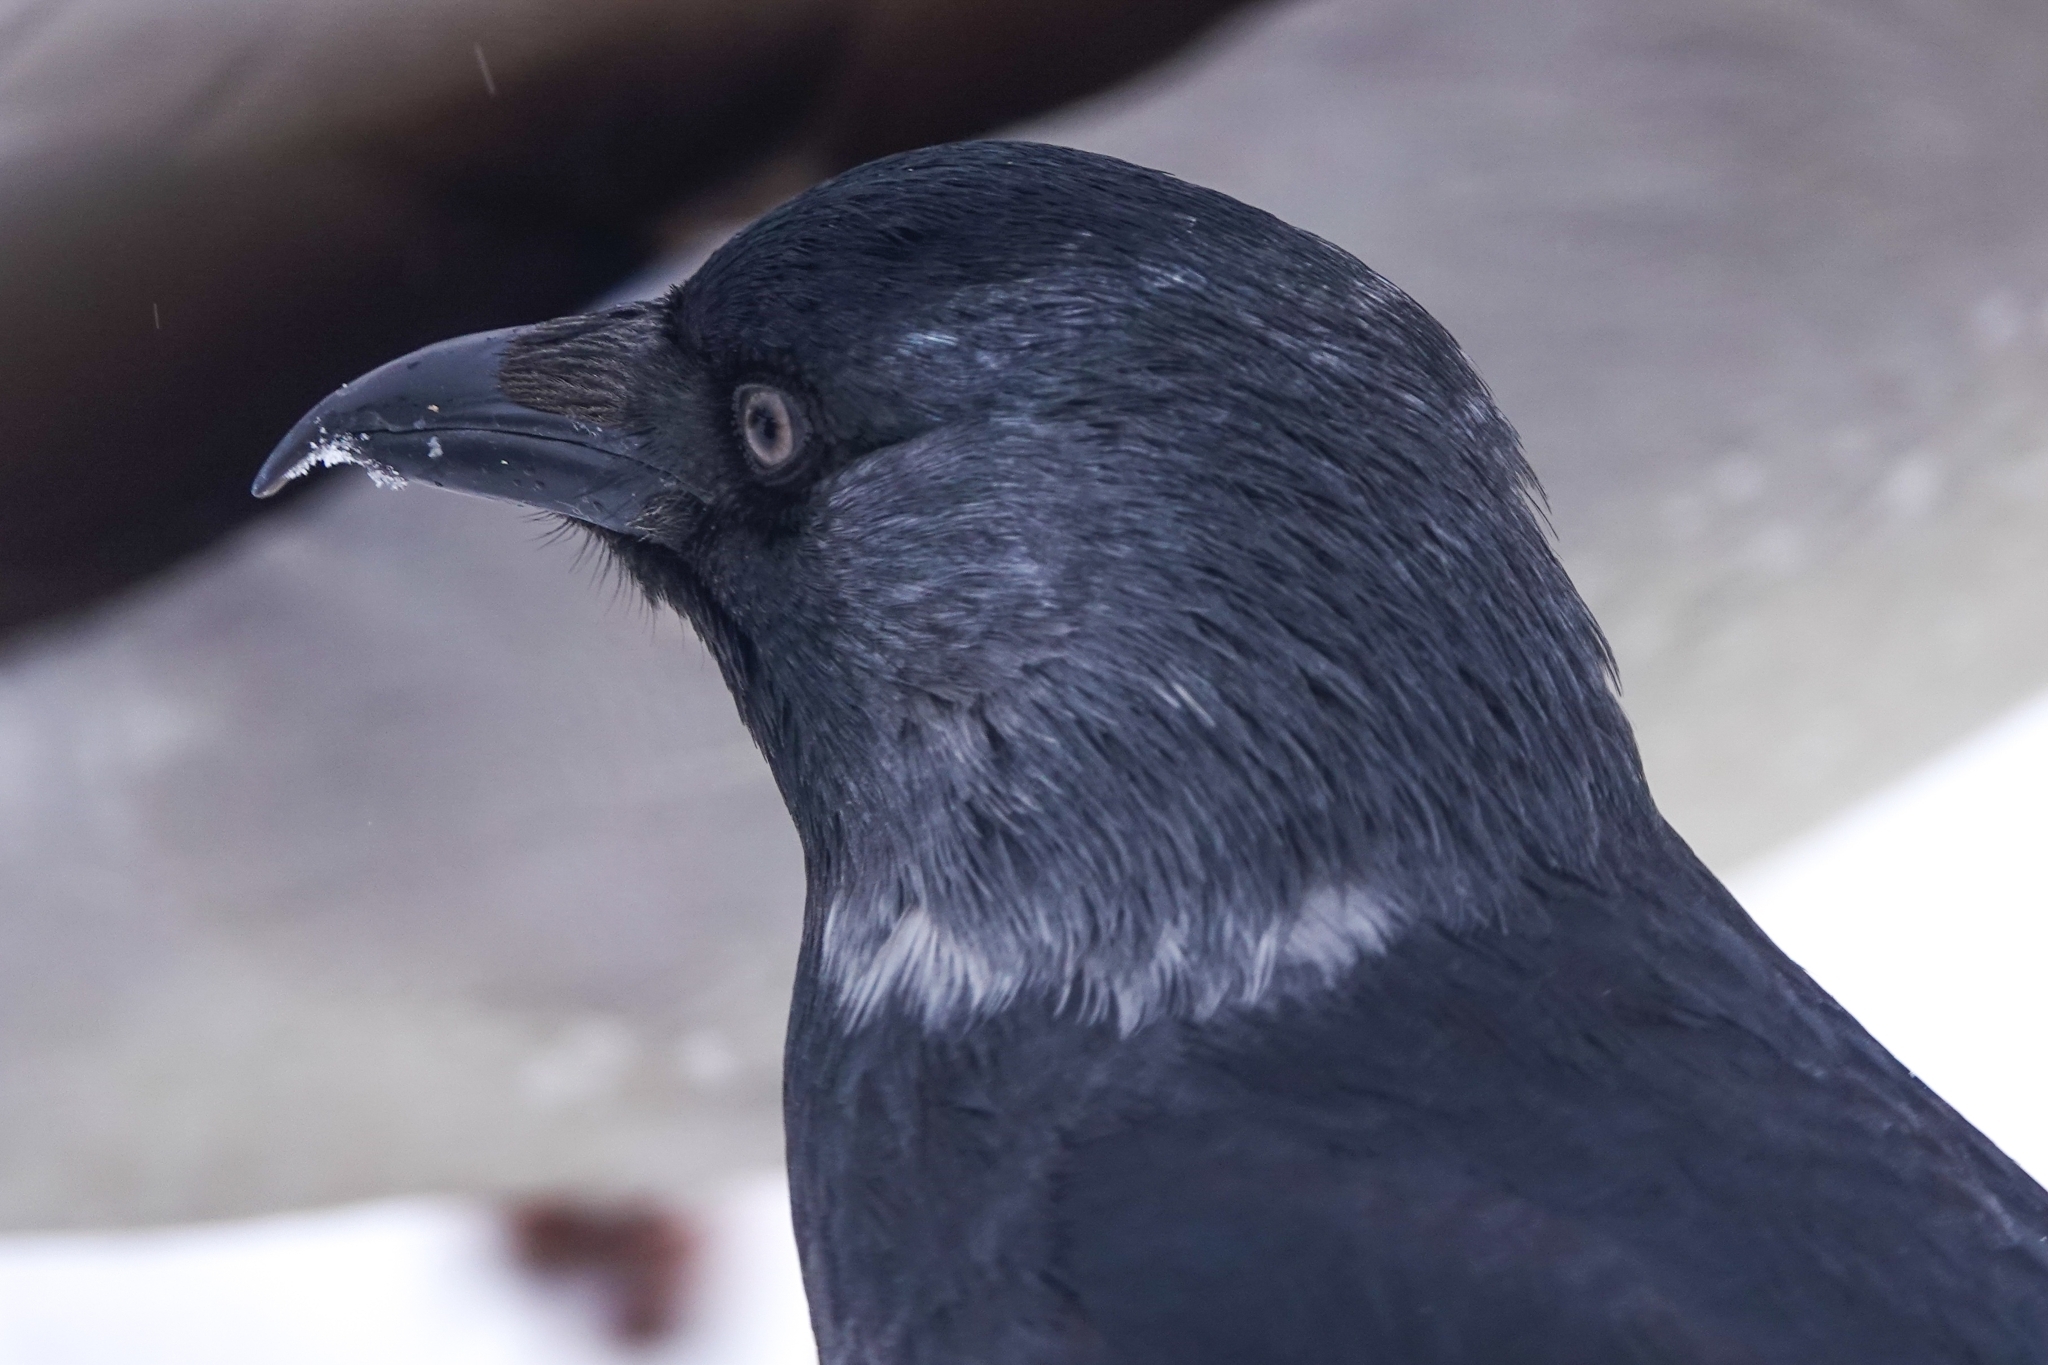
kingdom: Animalia
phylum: Chordata
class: Aves
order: Passeriformes
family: Corvidae
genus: Coloeus
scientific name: Coloeus monedula
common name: Western jackdaw
